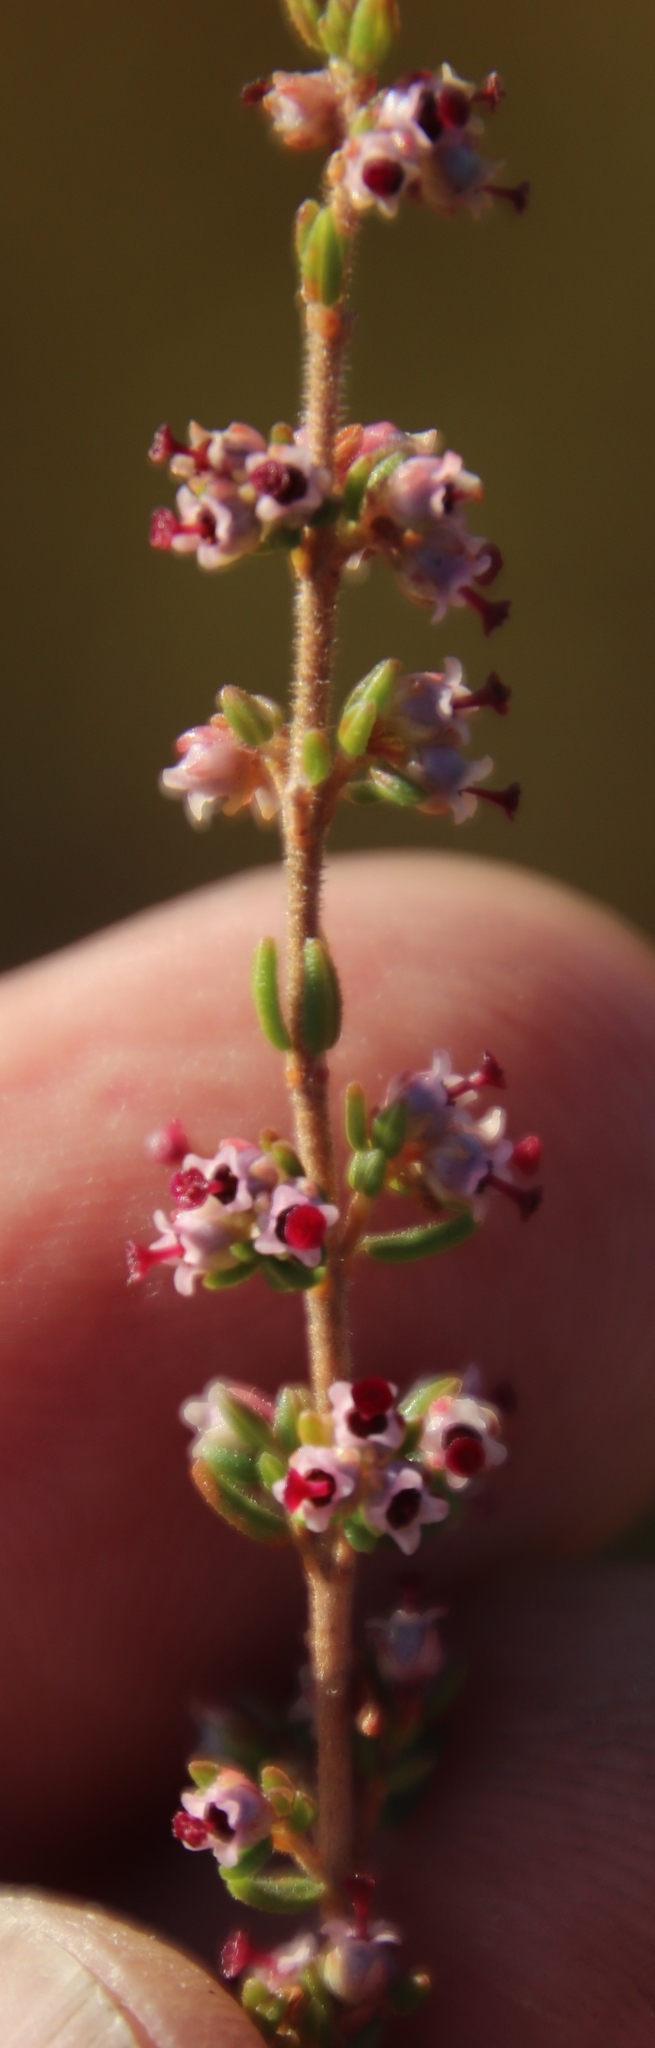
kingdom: Plantae
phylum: Tracheophyta
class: Magnoliopsida
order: Ericales
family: Ericaceae
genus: Erica
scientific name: Erica hispidula
